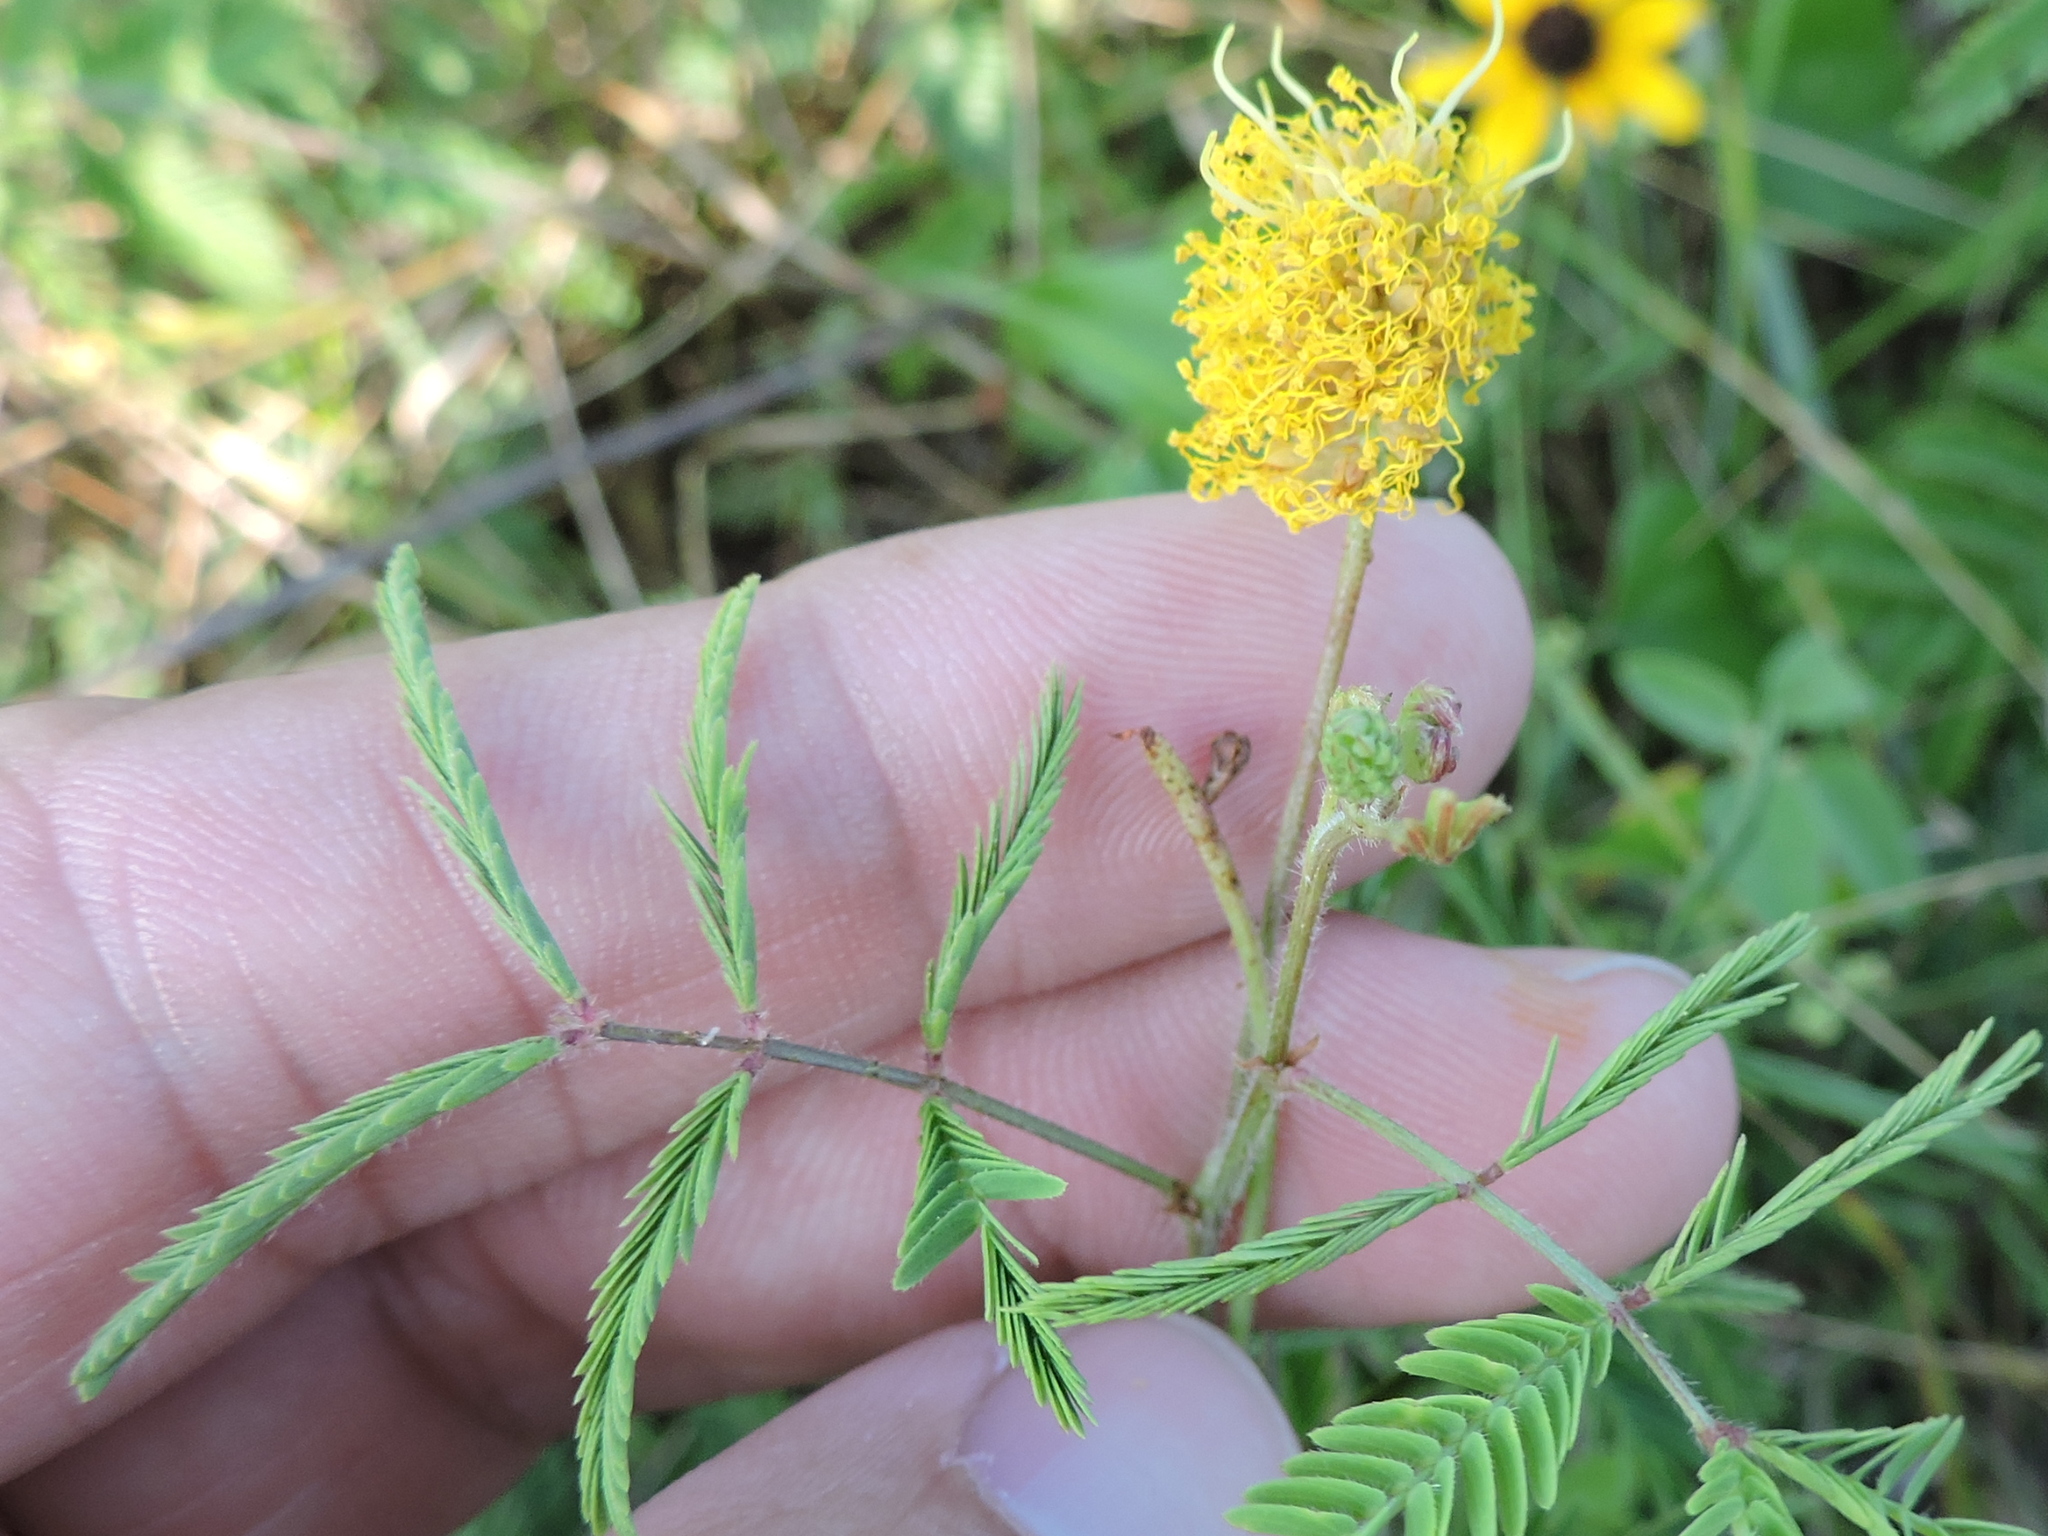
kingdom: Plantae
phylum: Tracheophyta
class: Magnoliopsida
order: Fabales
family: Fabaceae
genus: Neptunia
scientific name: Neptunia lutea
